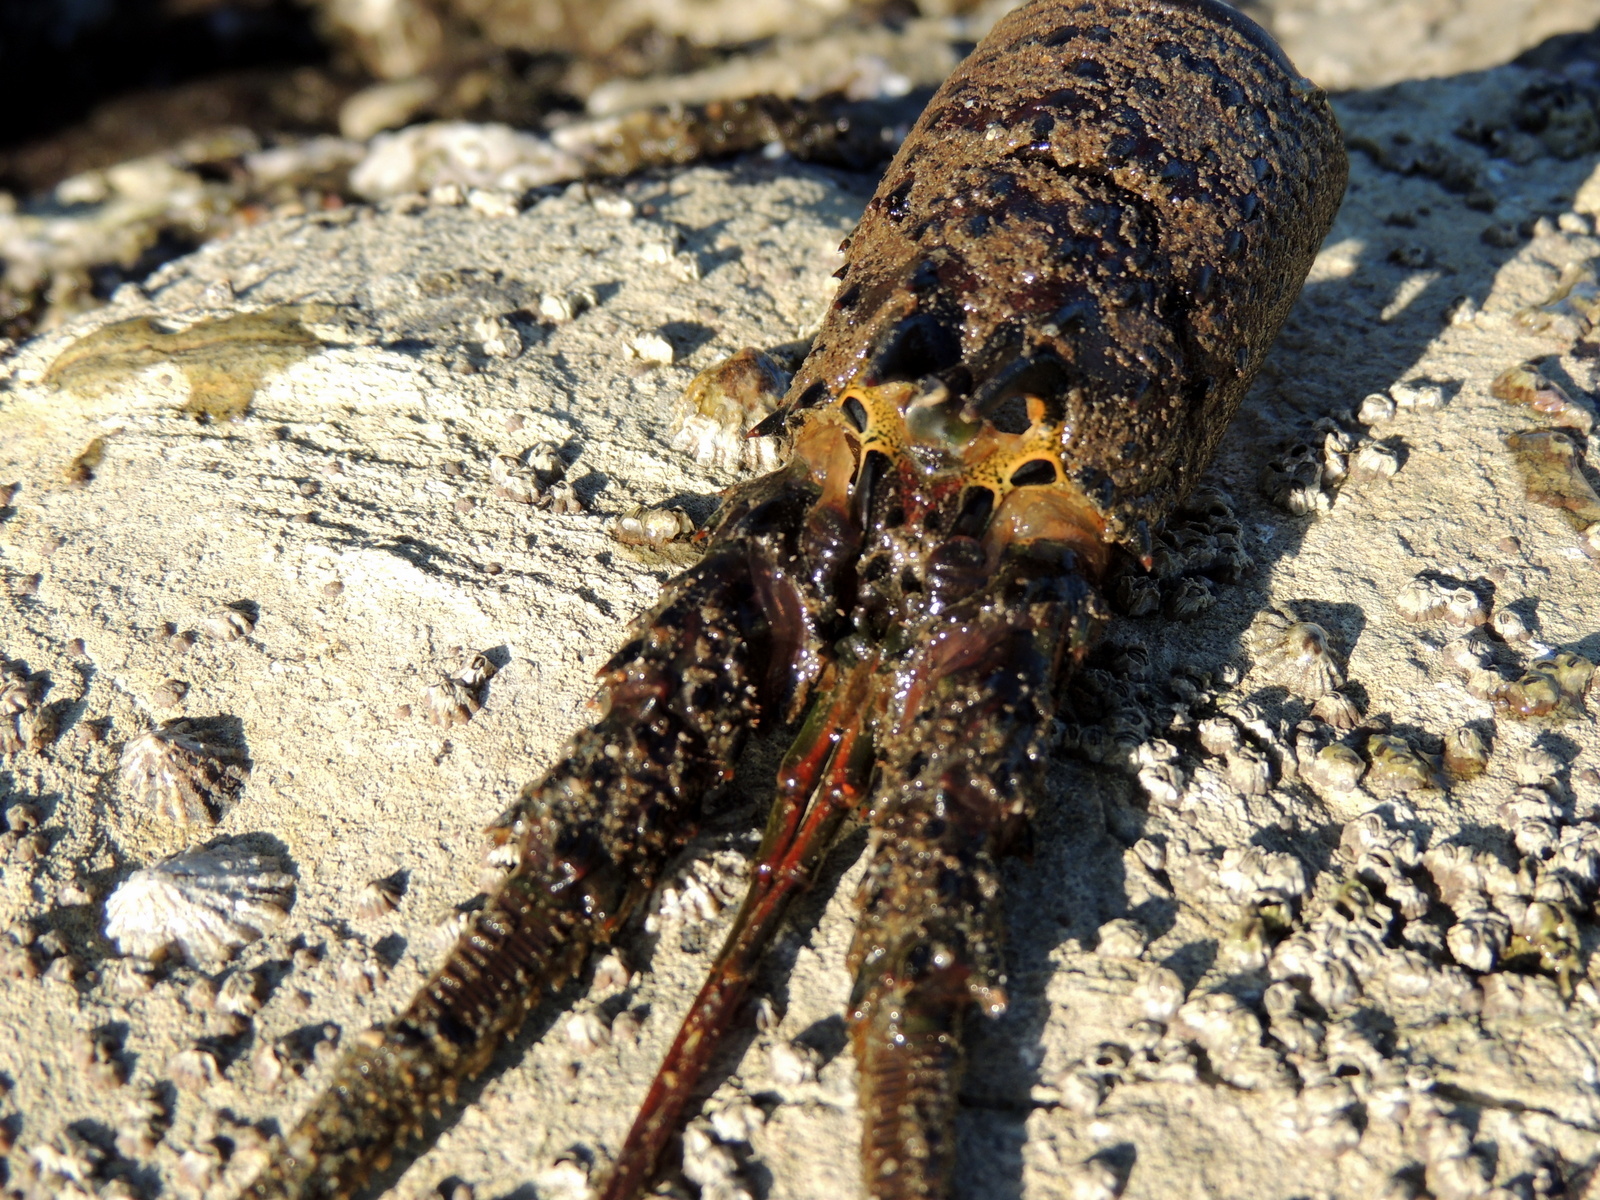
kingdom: Animalia
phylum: Arthropoda
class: Malacostraca
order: Decapoda
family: Palinuridae
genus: Panulirus
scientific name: Panulirus interruptus
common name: California spiny lobster
